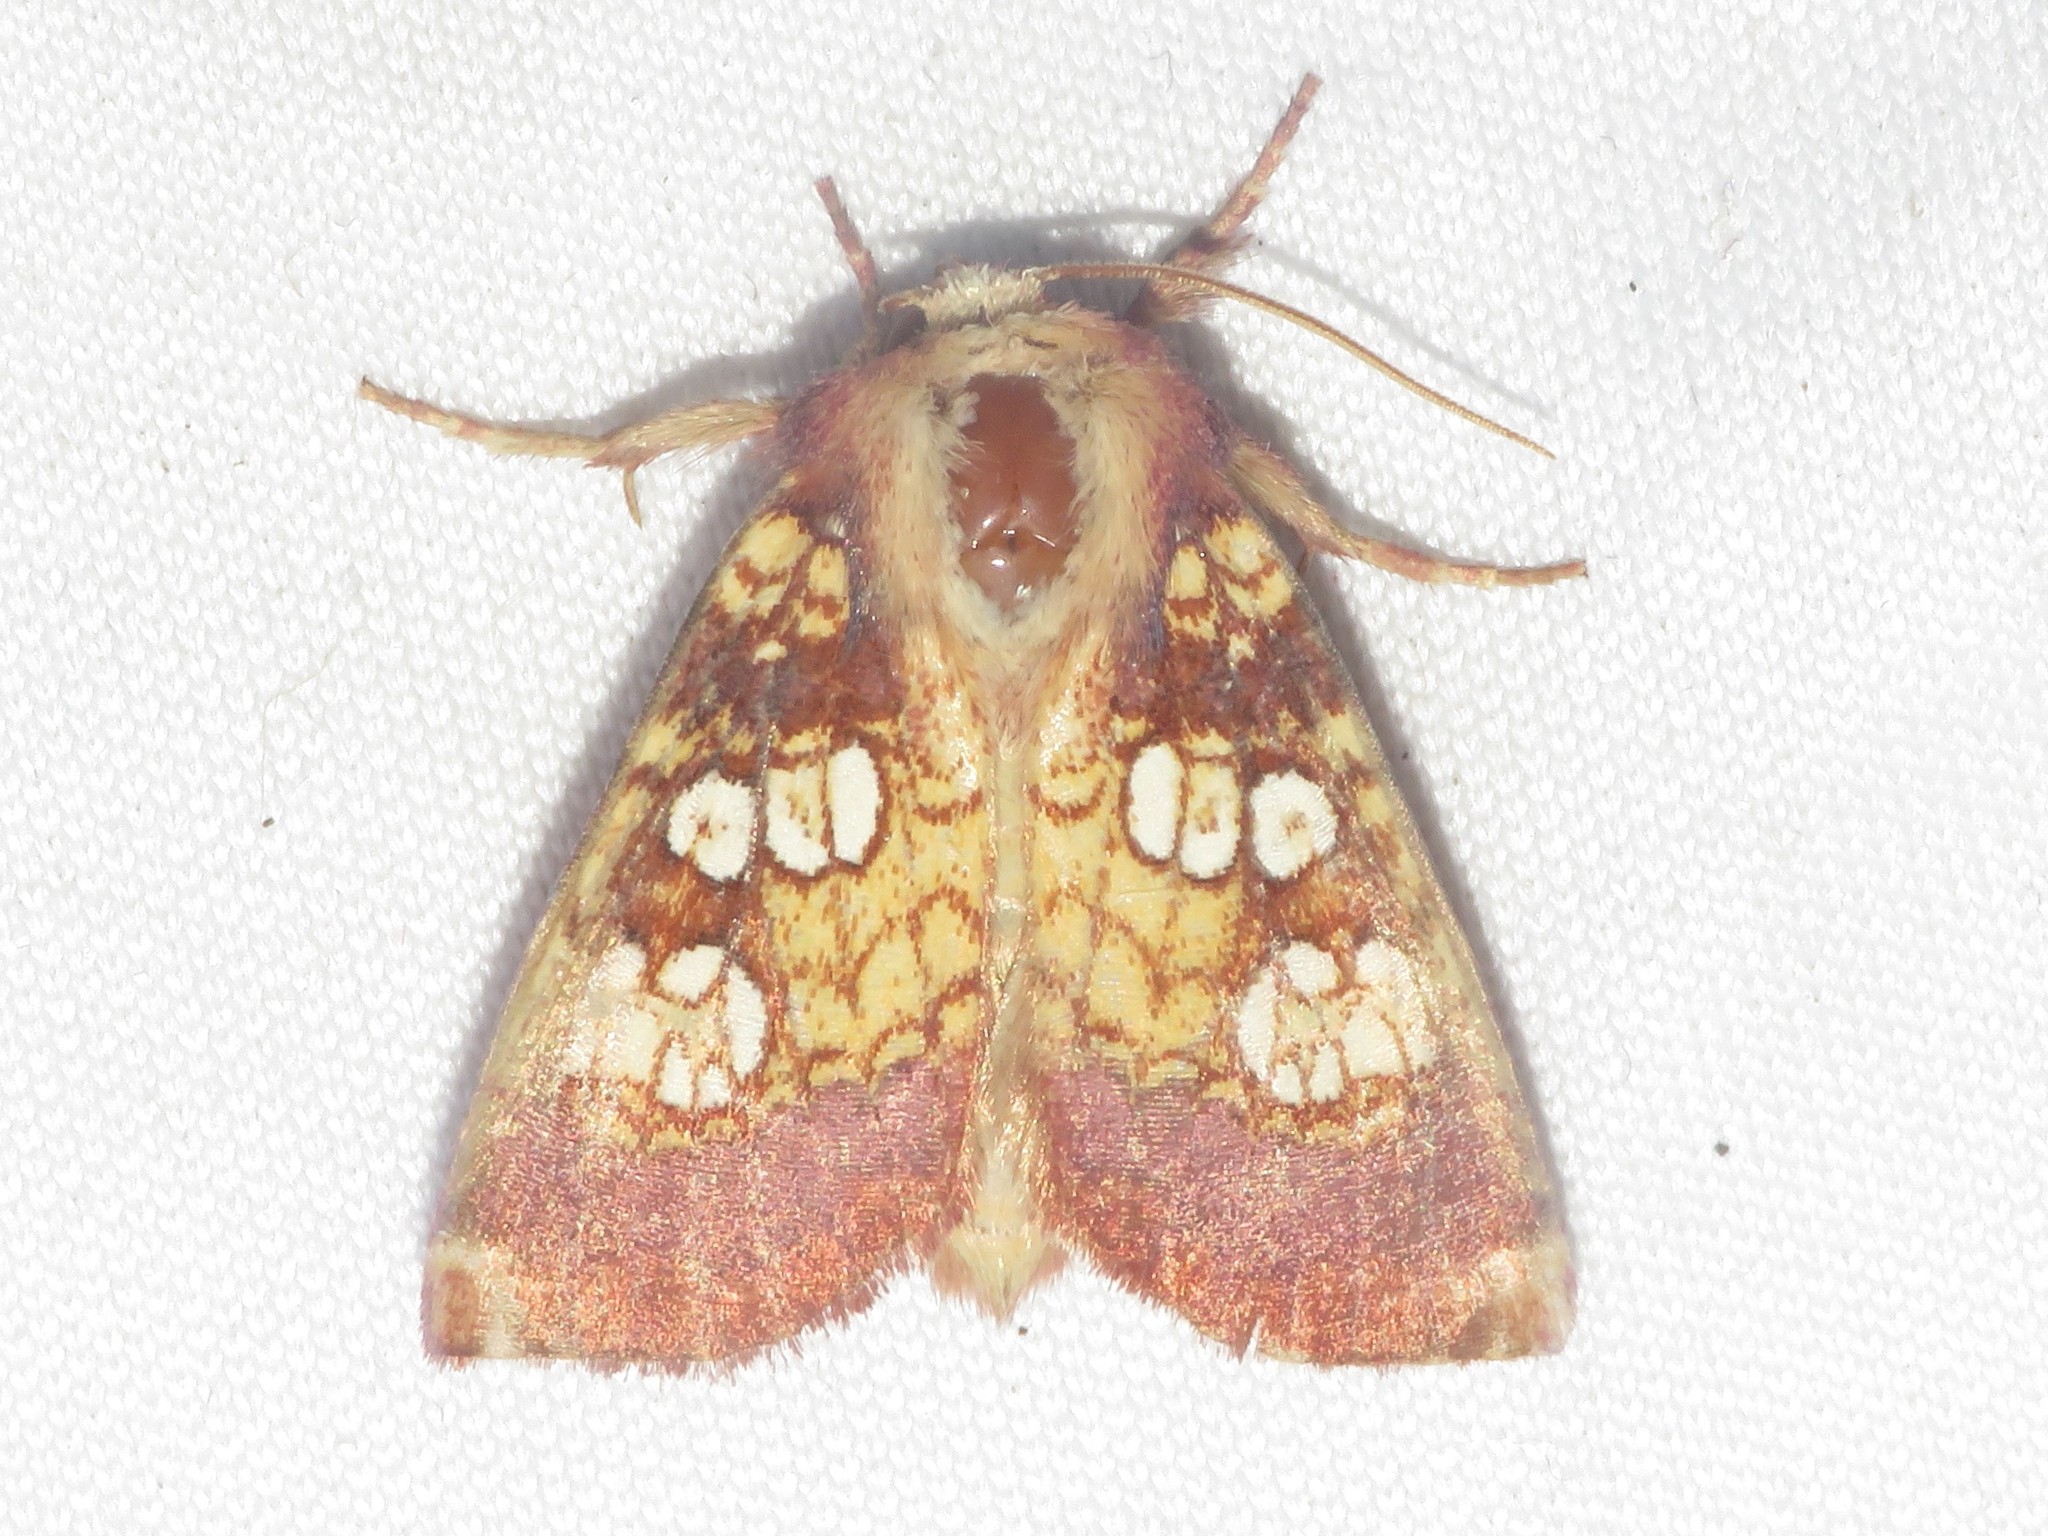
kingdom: Animalia
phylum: Arthropoda
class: Insecta
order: Lepidoptera
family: Noctuidae
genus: Papaipema
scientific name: Papaipema appassionata
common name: Pitcher plant borer moth
